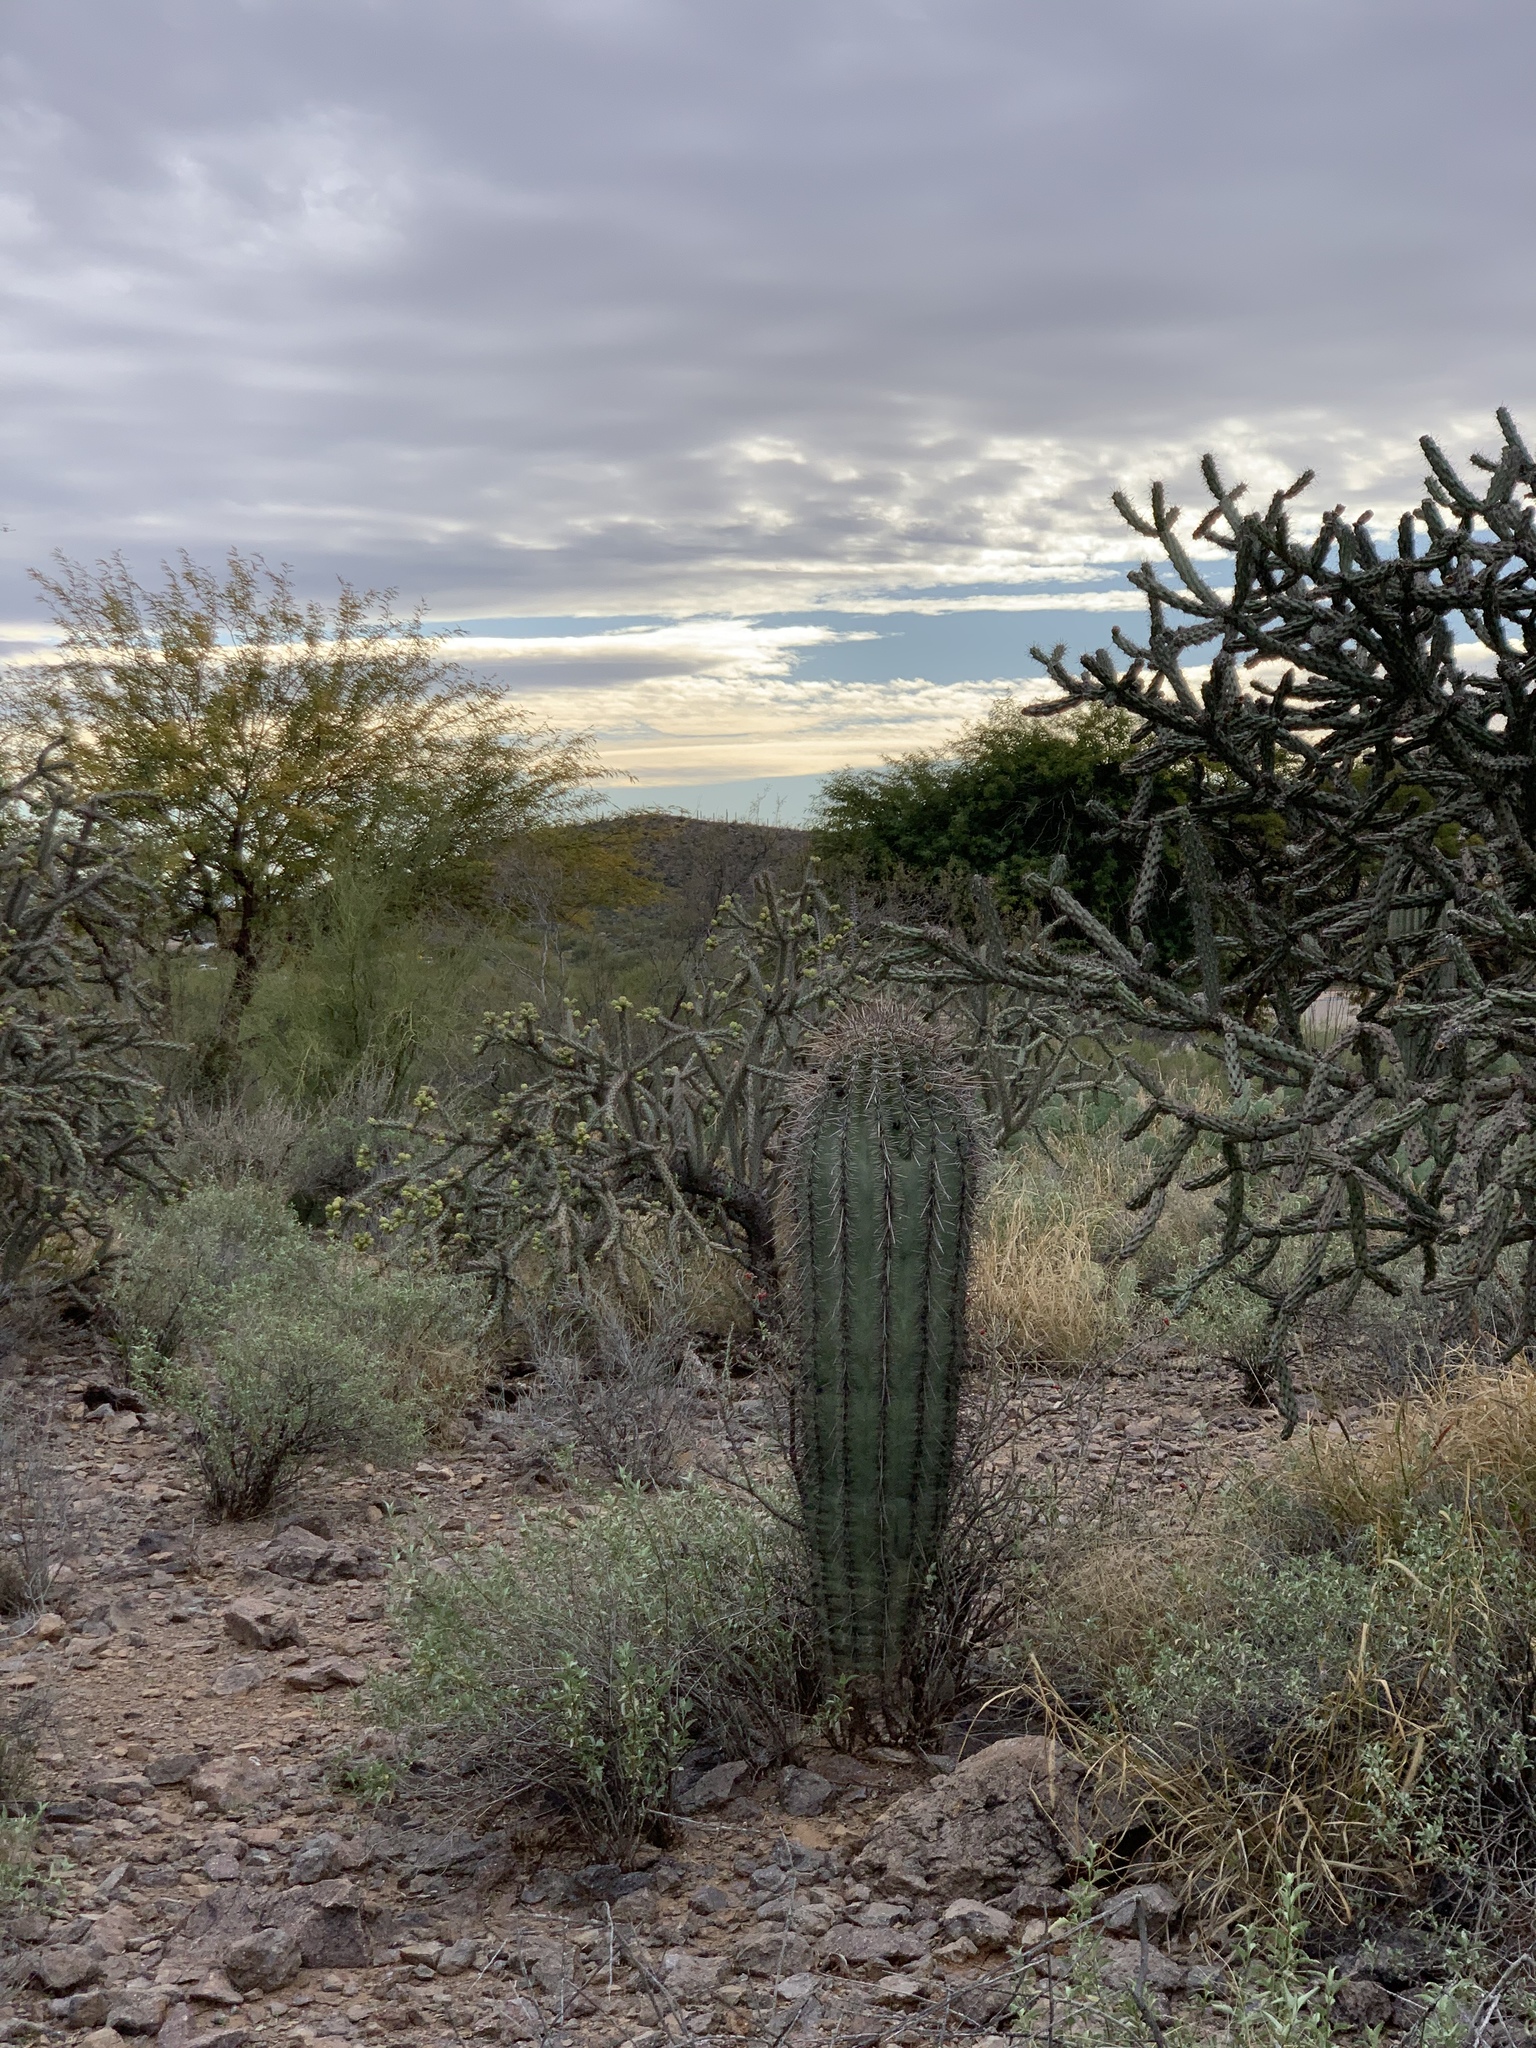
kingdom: Plantae
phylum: Tracheophyta
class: Magnoliopsida
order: Caryophyllales
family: Cactaceae
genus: Carnegiea
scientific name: Carnegiea gigantea
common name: Saguaro
